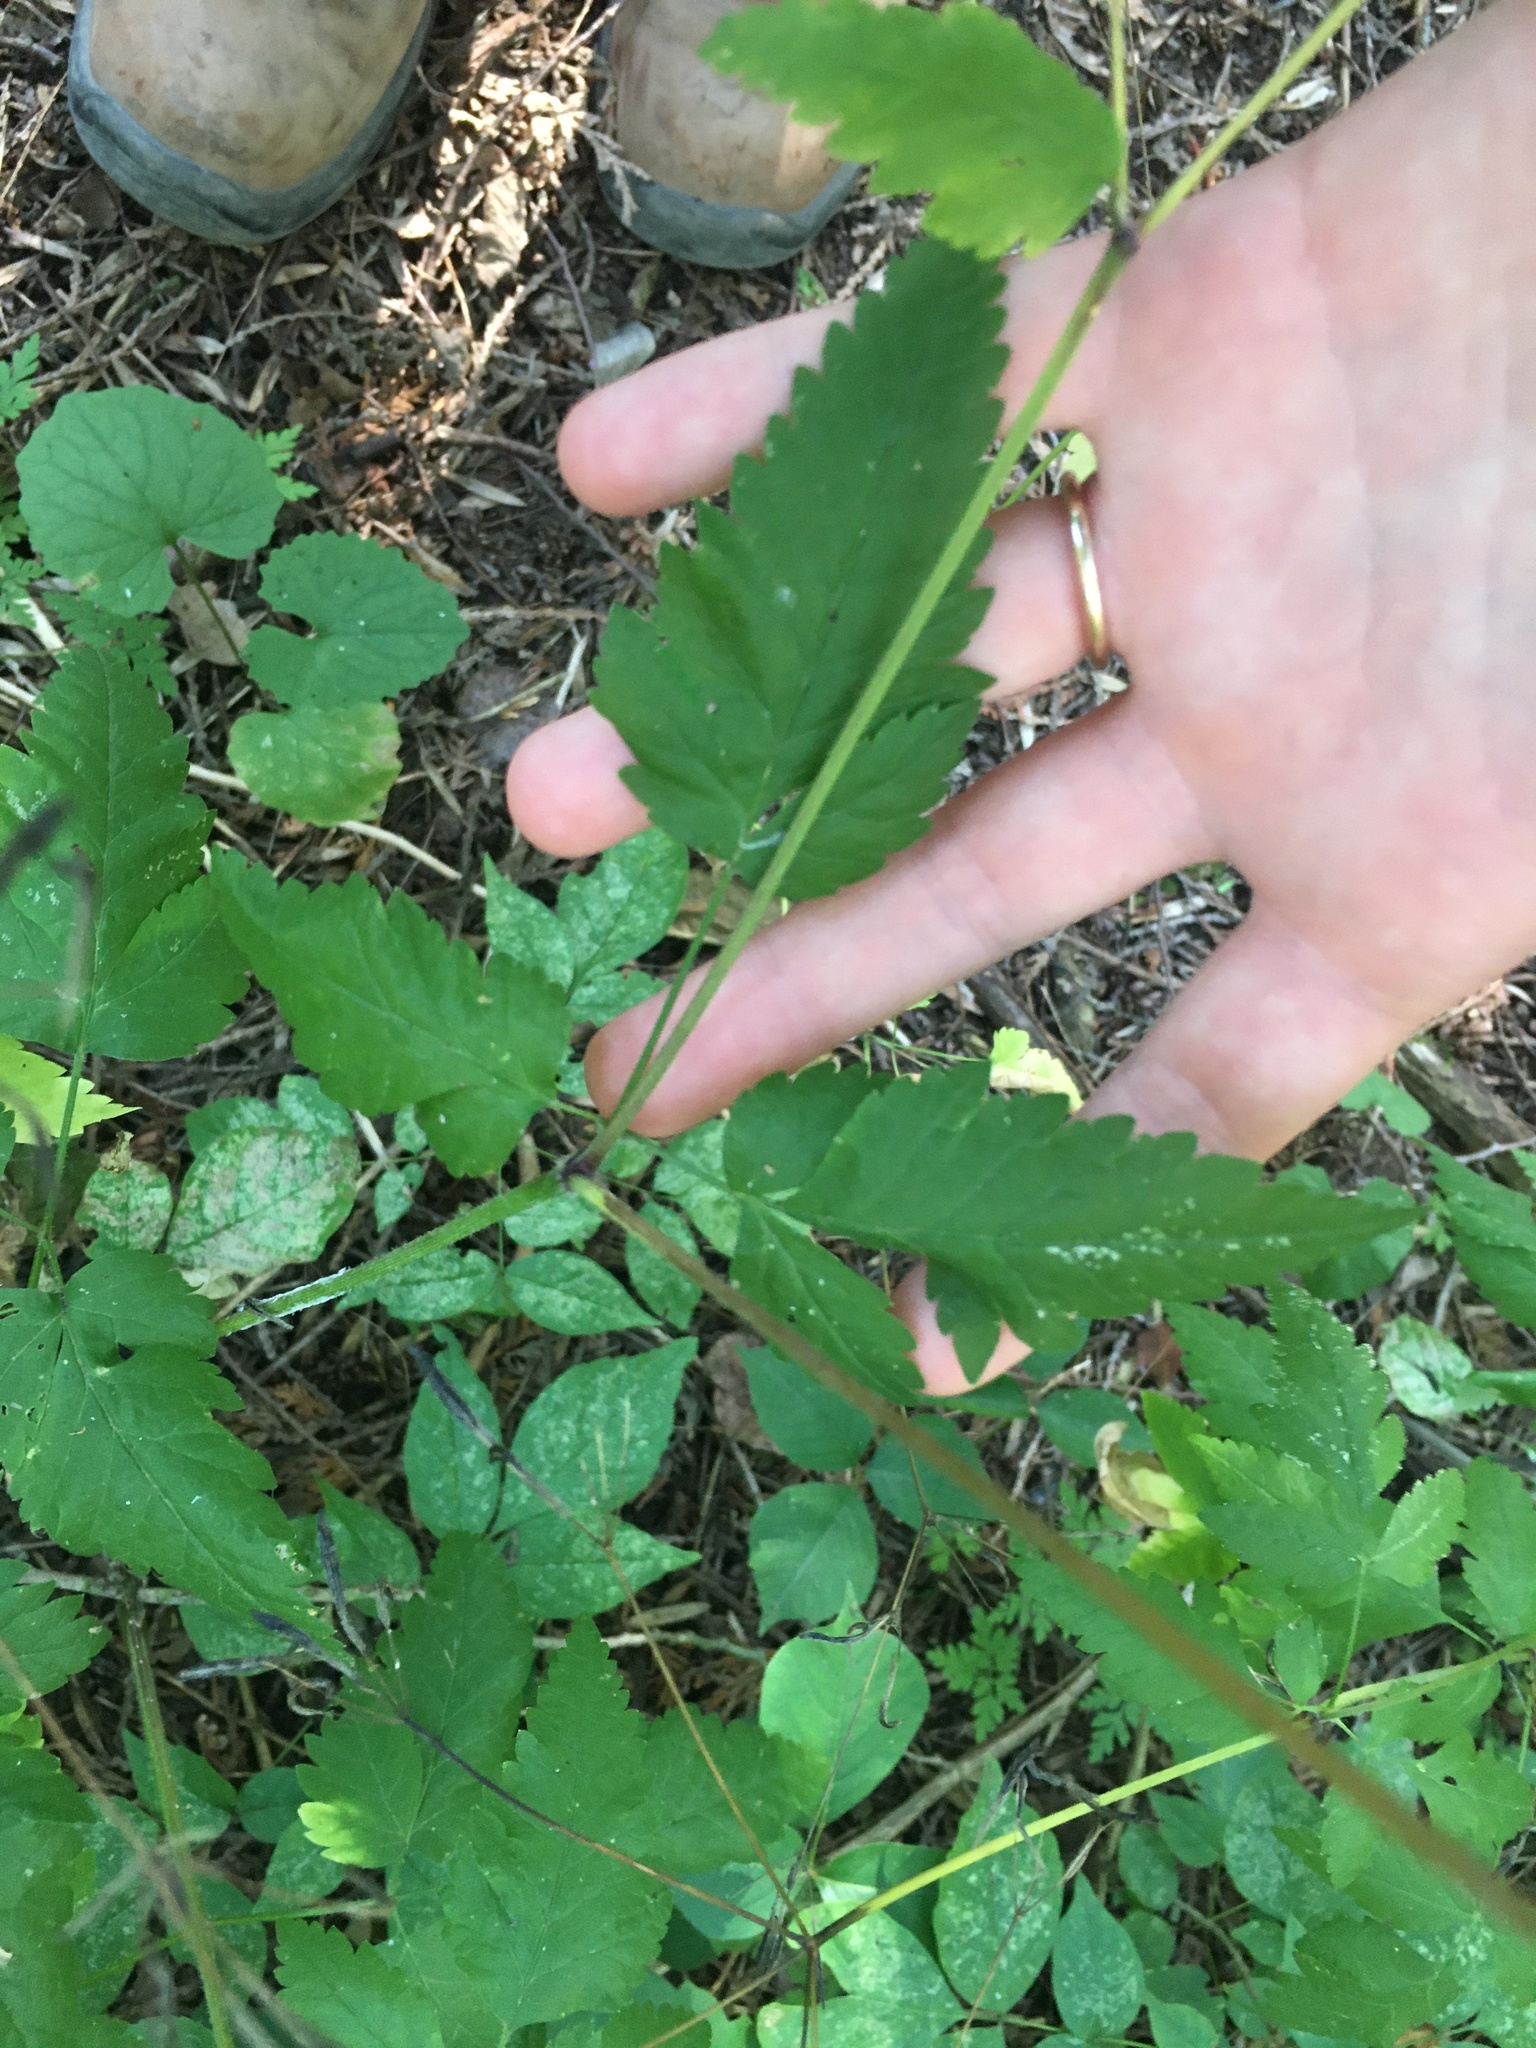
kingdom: Plantae
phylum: Tracheophyta
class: Magnoliopsida
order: Apiales
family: Apiaceae
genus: Osmorhiza
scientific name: Osmorhiza claytonii
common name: Hairy sweet cicely
